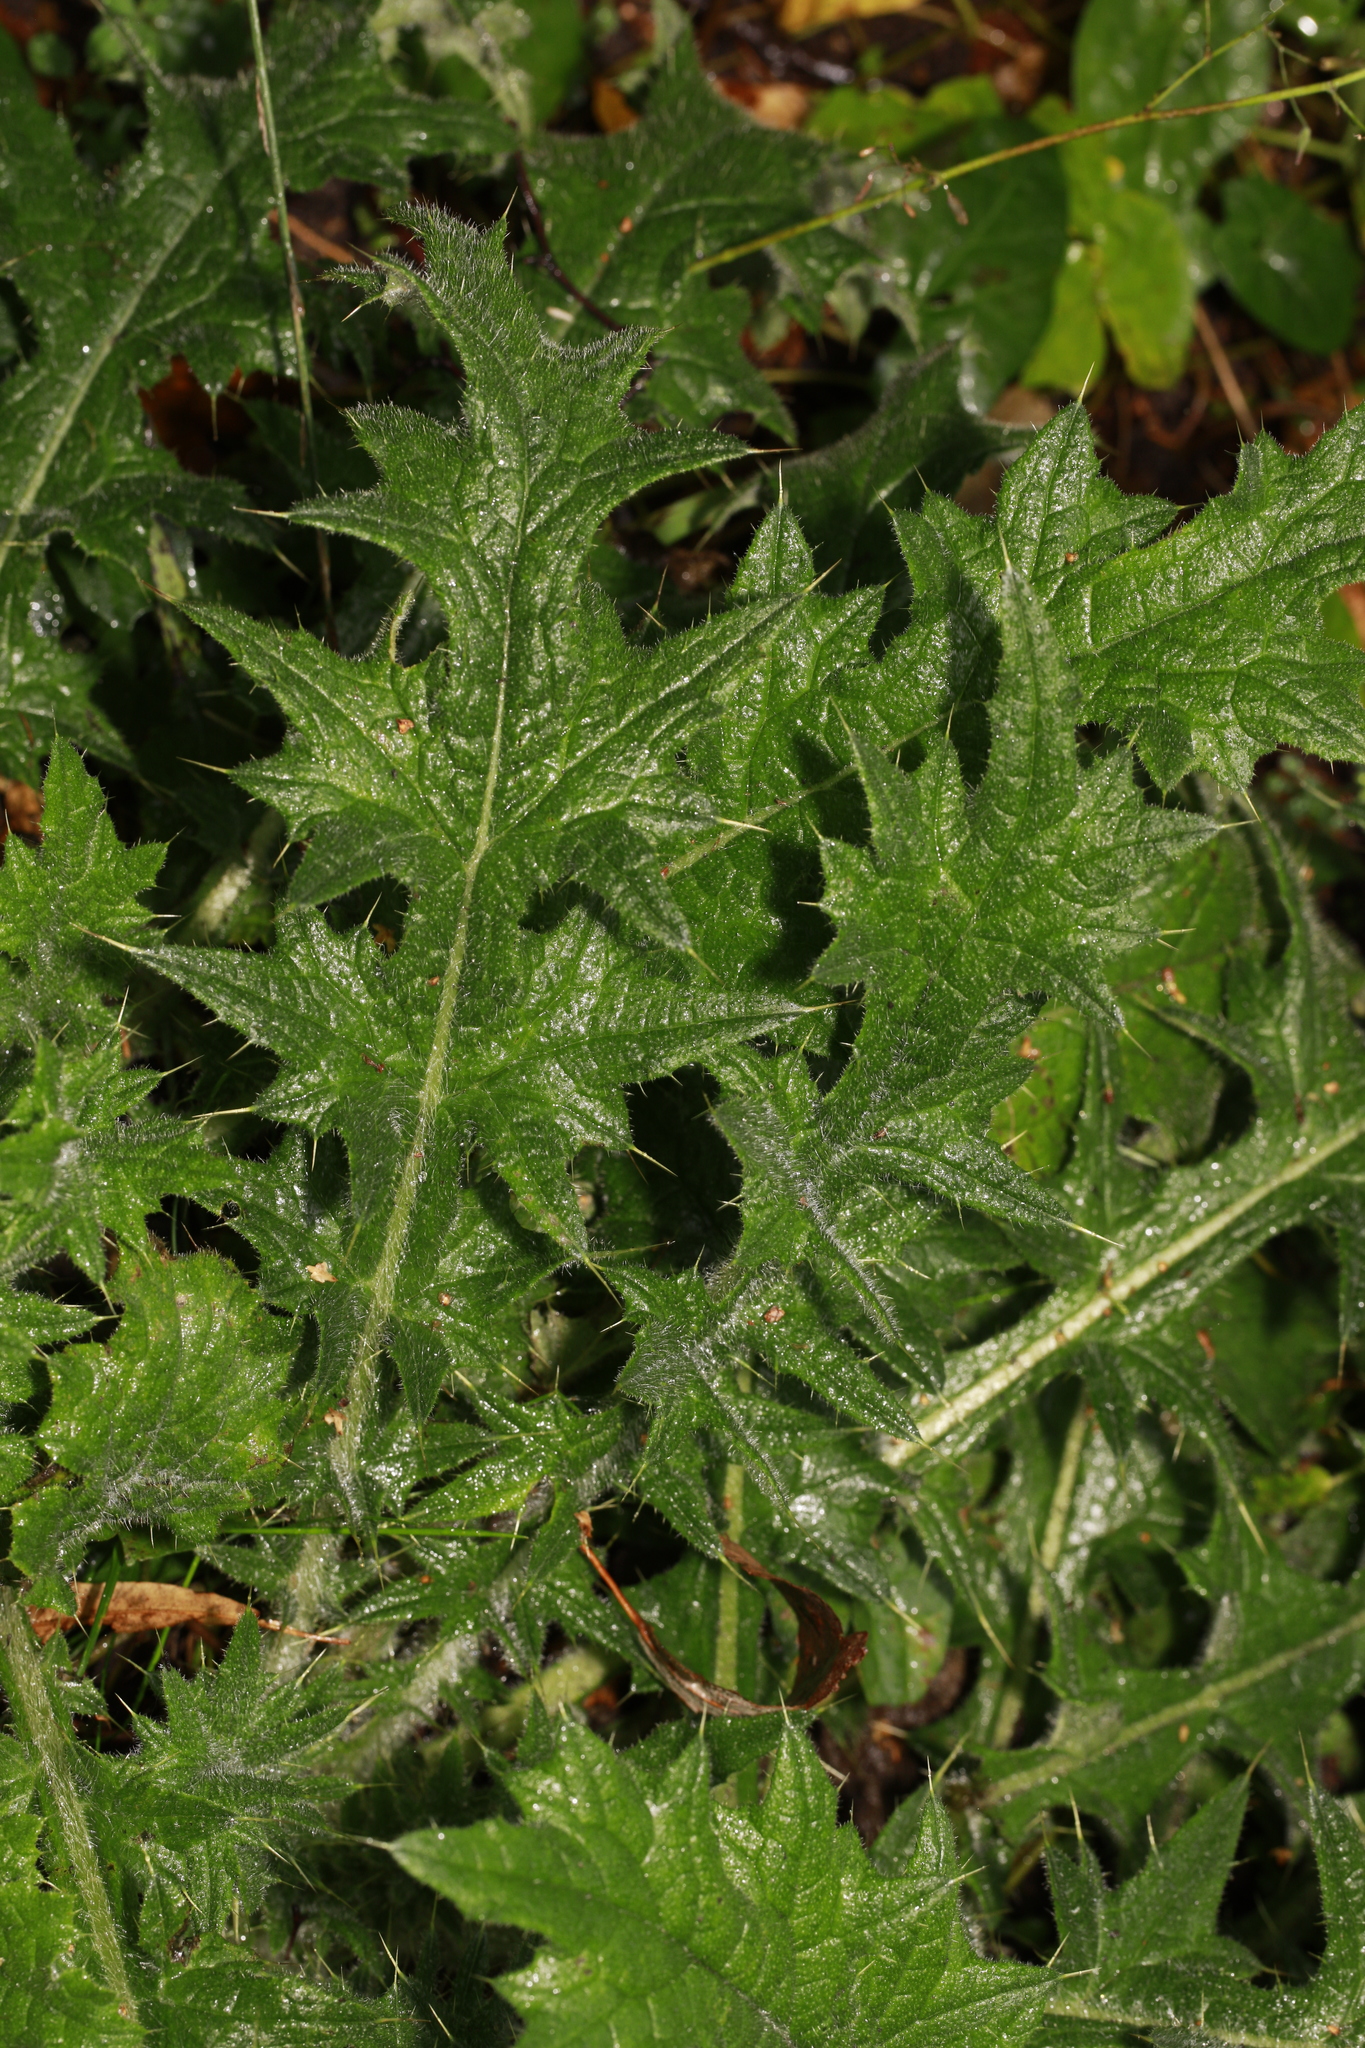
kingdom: Plantae
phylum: Tracheophyta
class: Magnoliopsida
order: Asterales
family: Asteraceae
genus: Cirsium
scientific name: Cirsium vulgare
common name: Bull thistle
